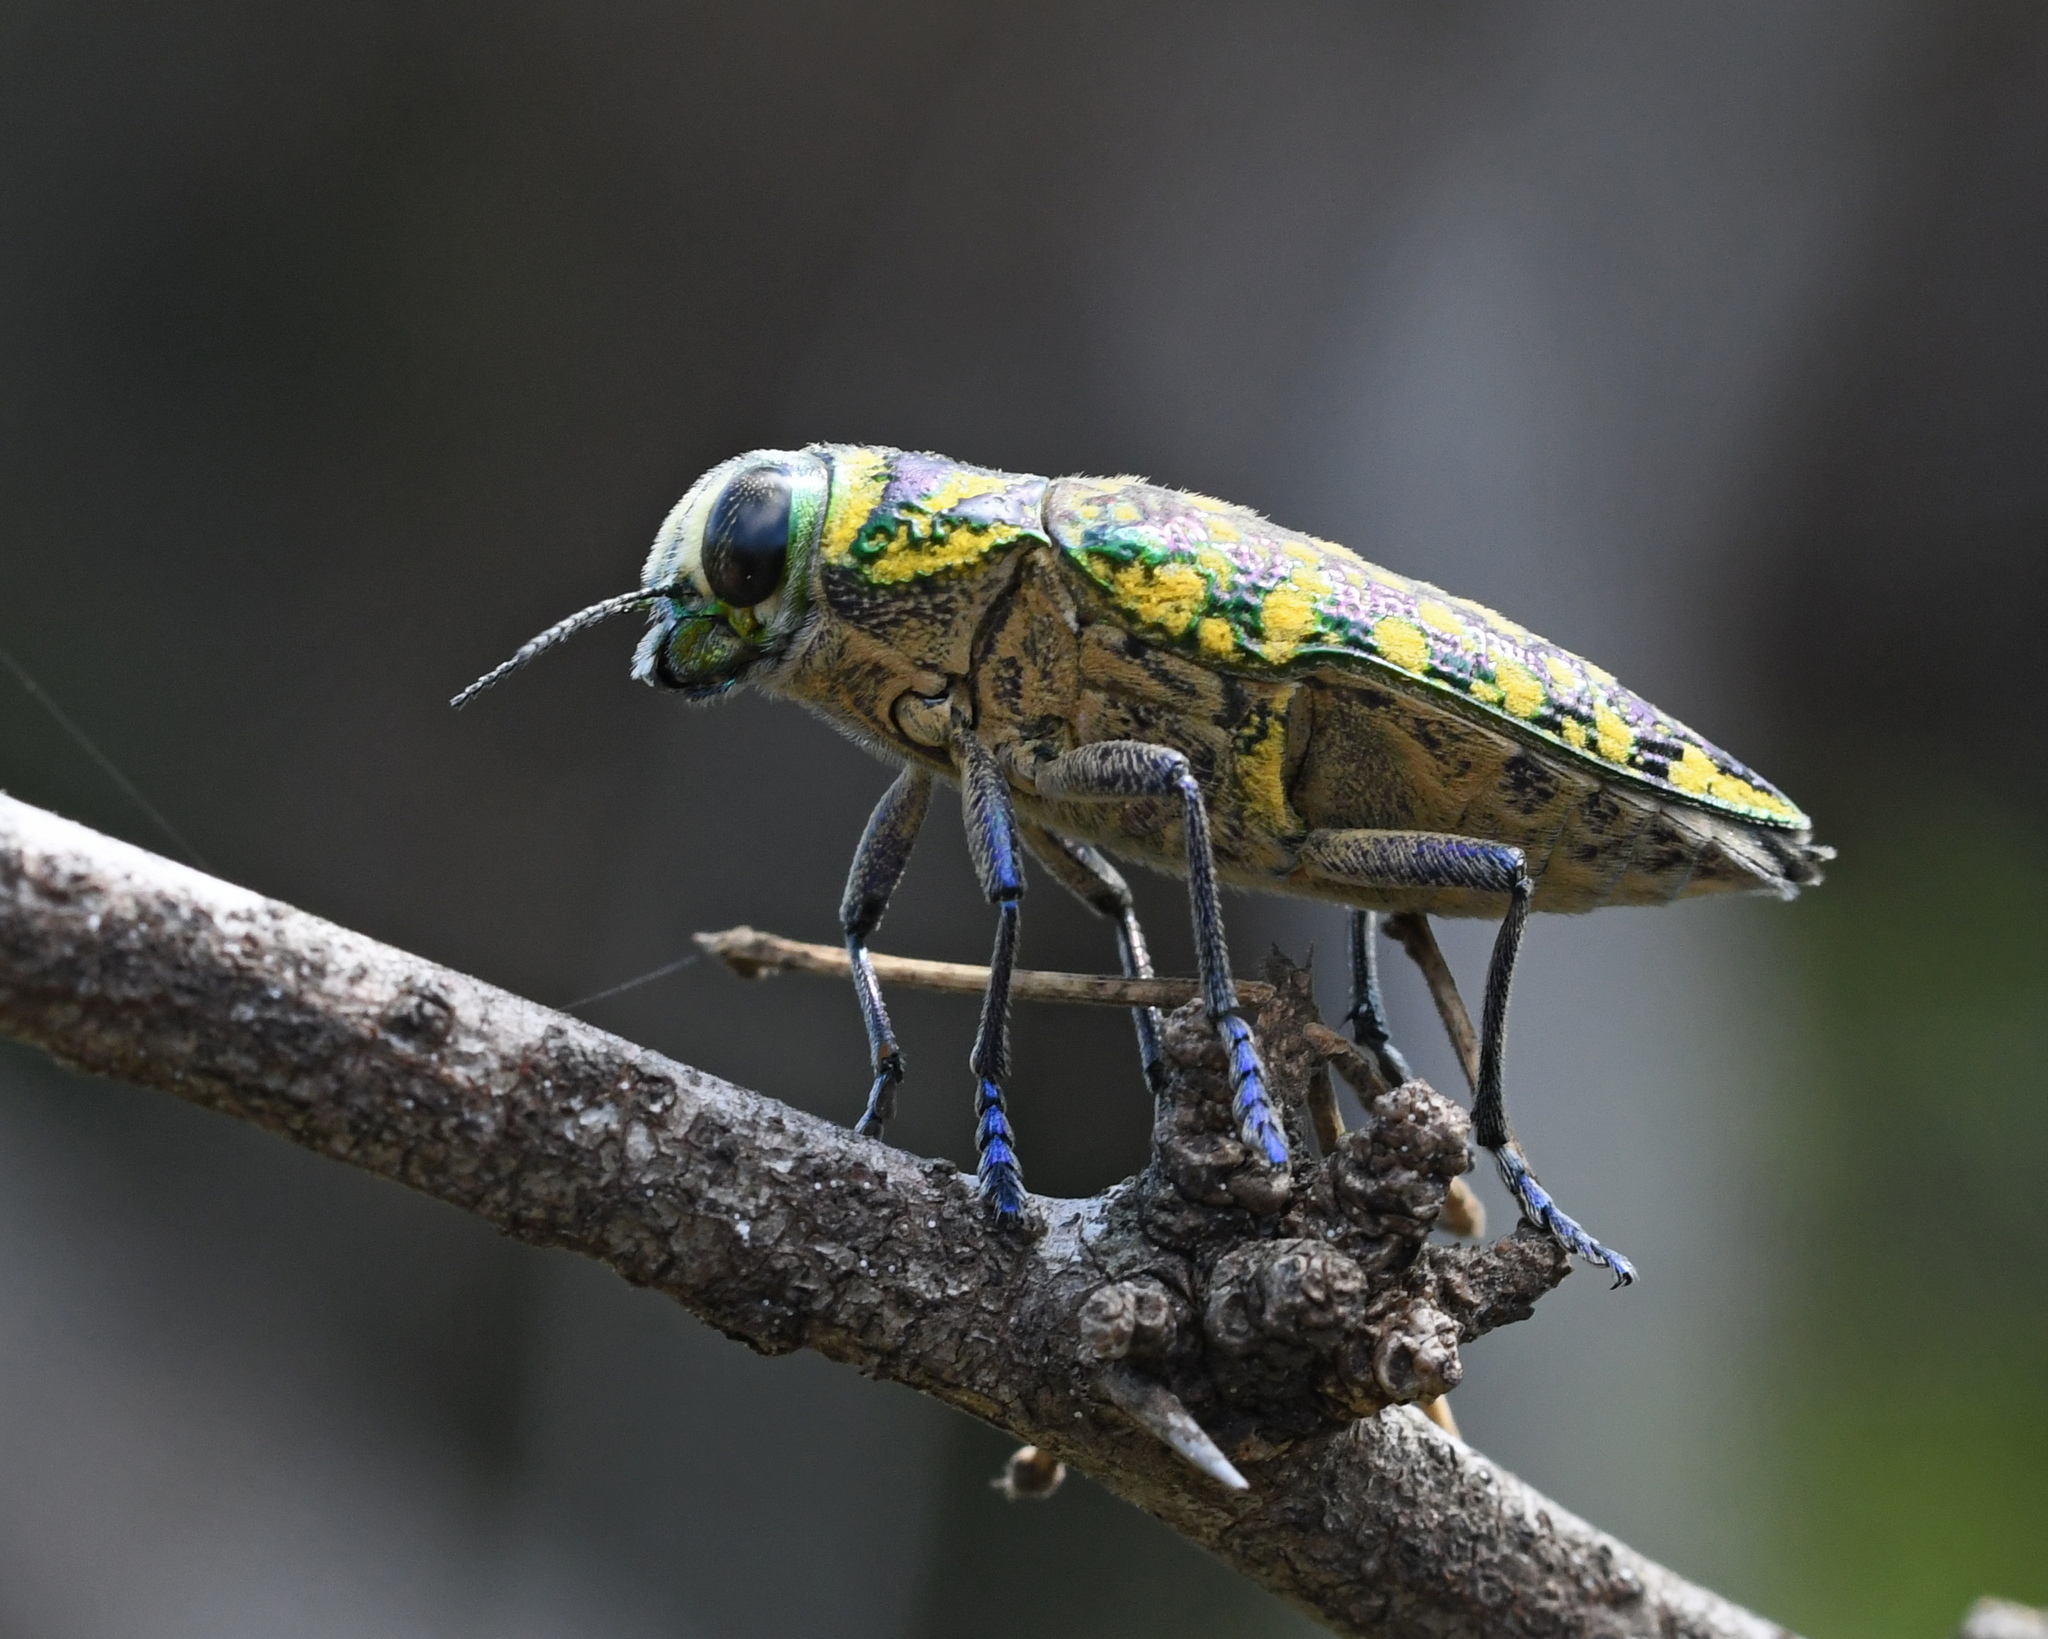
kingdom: Animalia
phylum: Arthropoda
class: Insecta
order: Coleoptera
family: Buprestidae
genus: Lampetis
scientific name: Lampetis
